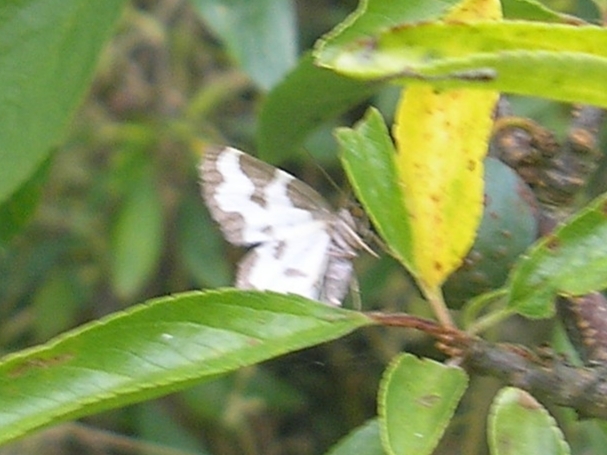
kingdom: Animalia
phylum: Arthropoda
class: Insecta
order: Lepidoptera
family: Geometridae
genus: Lomaspilis
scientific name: Lomaspilis marginata
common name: Clouded border
